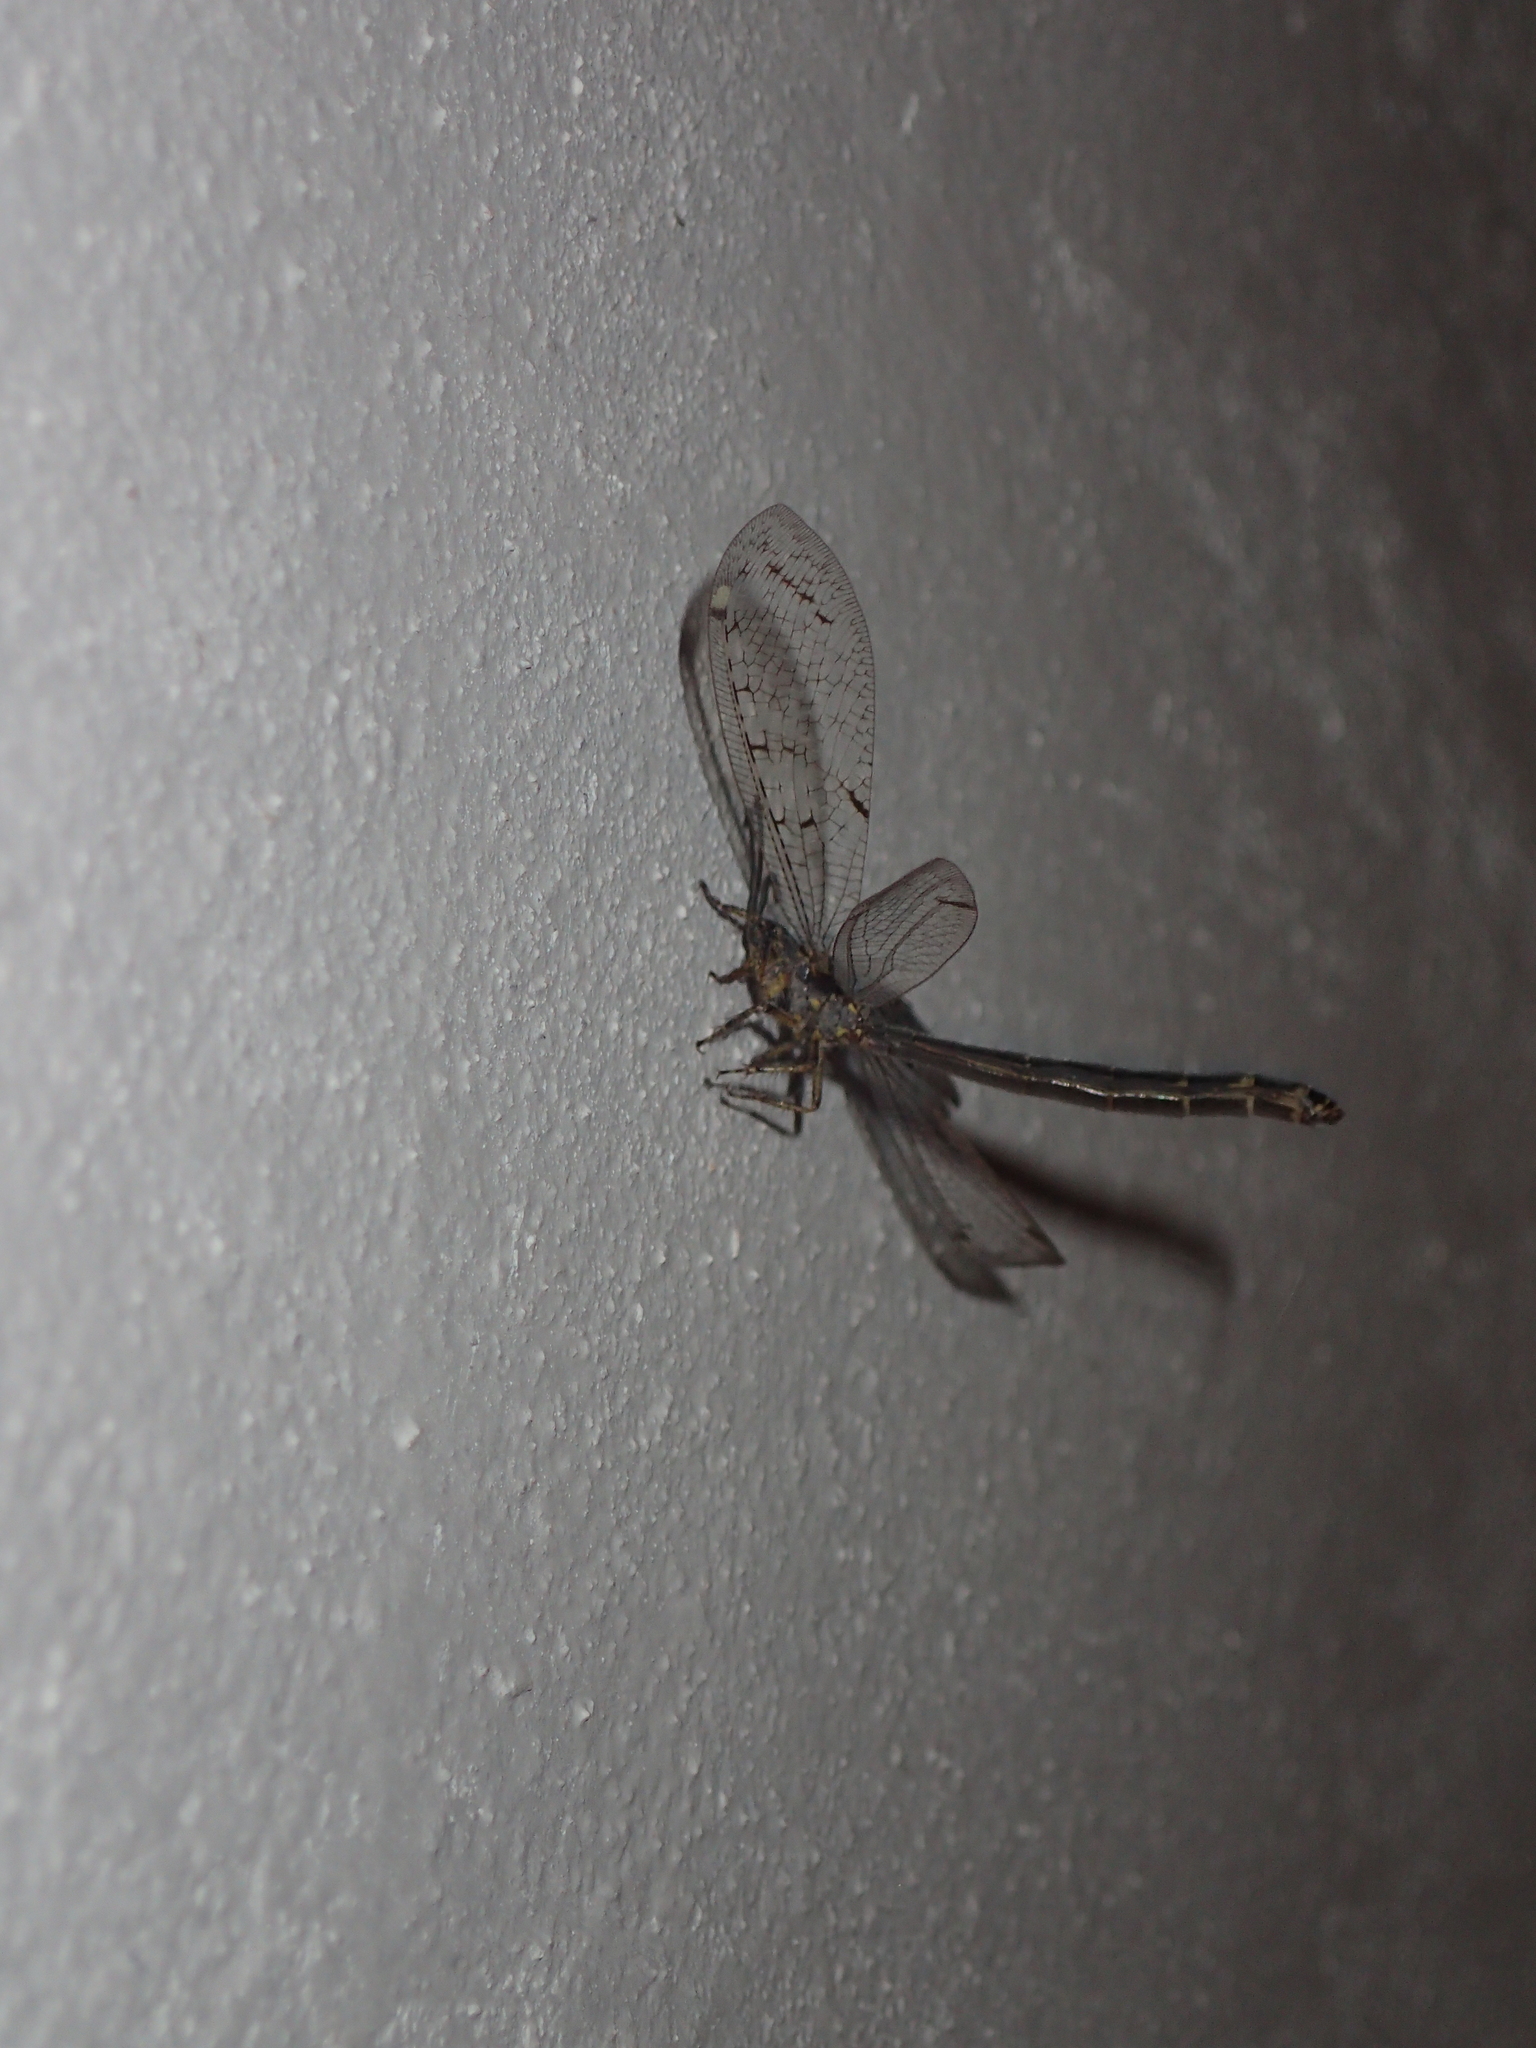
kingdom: Animalia
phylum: Arthropoda
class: Insecta
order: Neuroptera
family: Myrmeleontidae
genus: Distoleon
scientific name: Distoleon tetragrammicus
